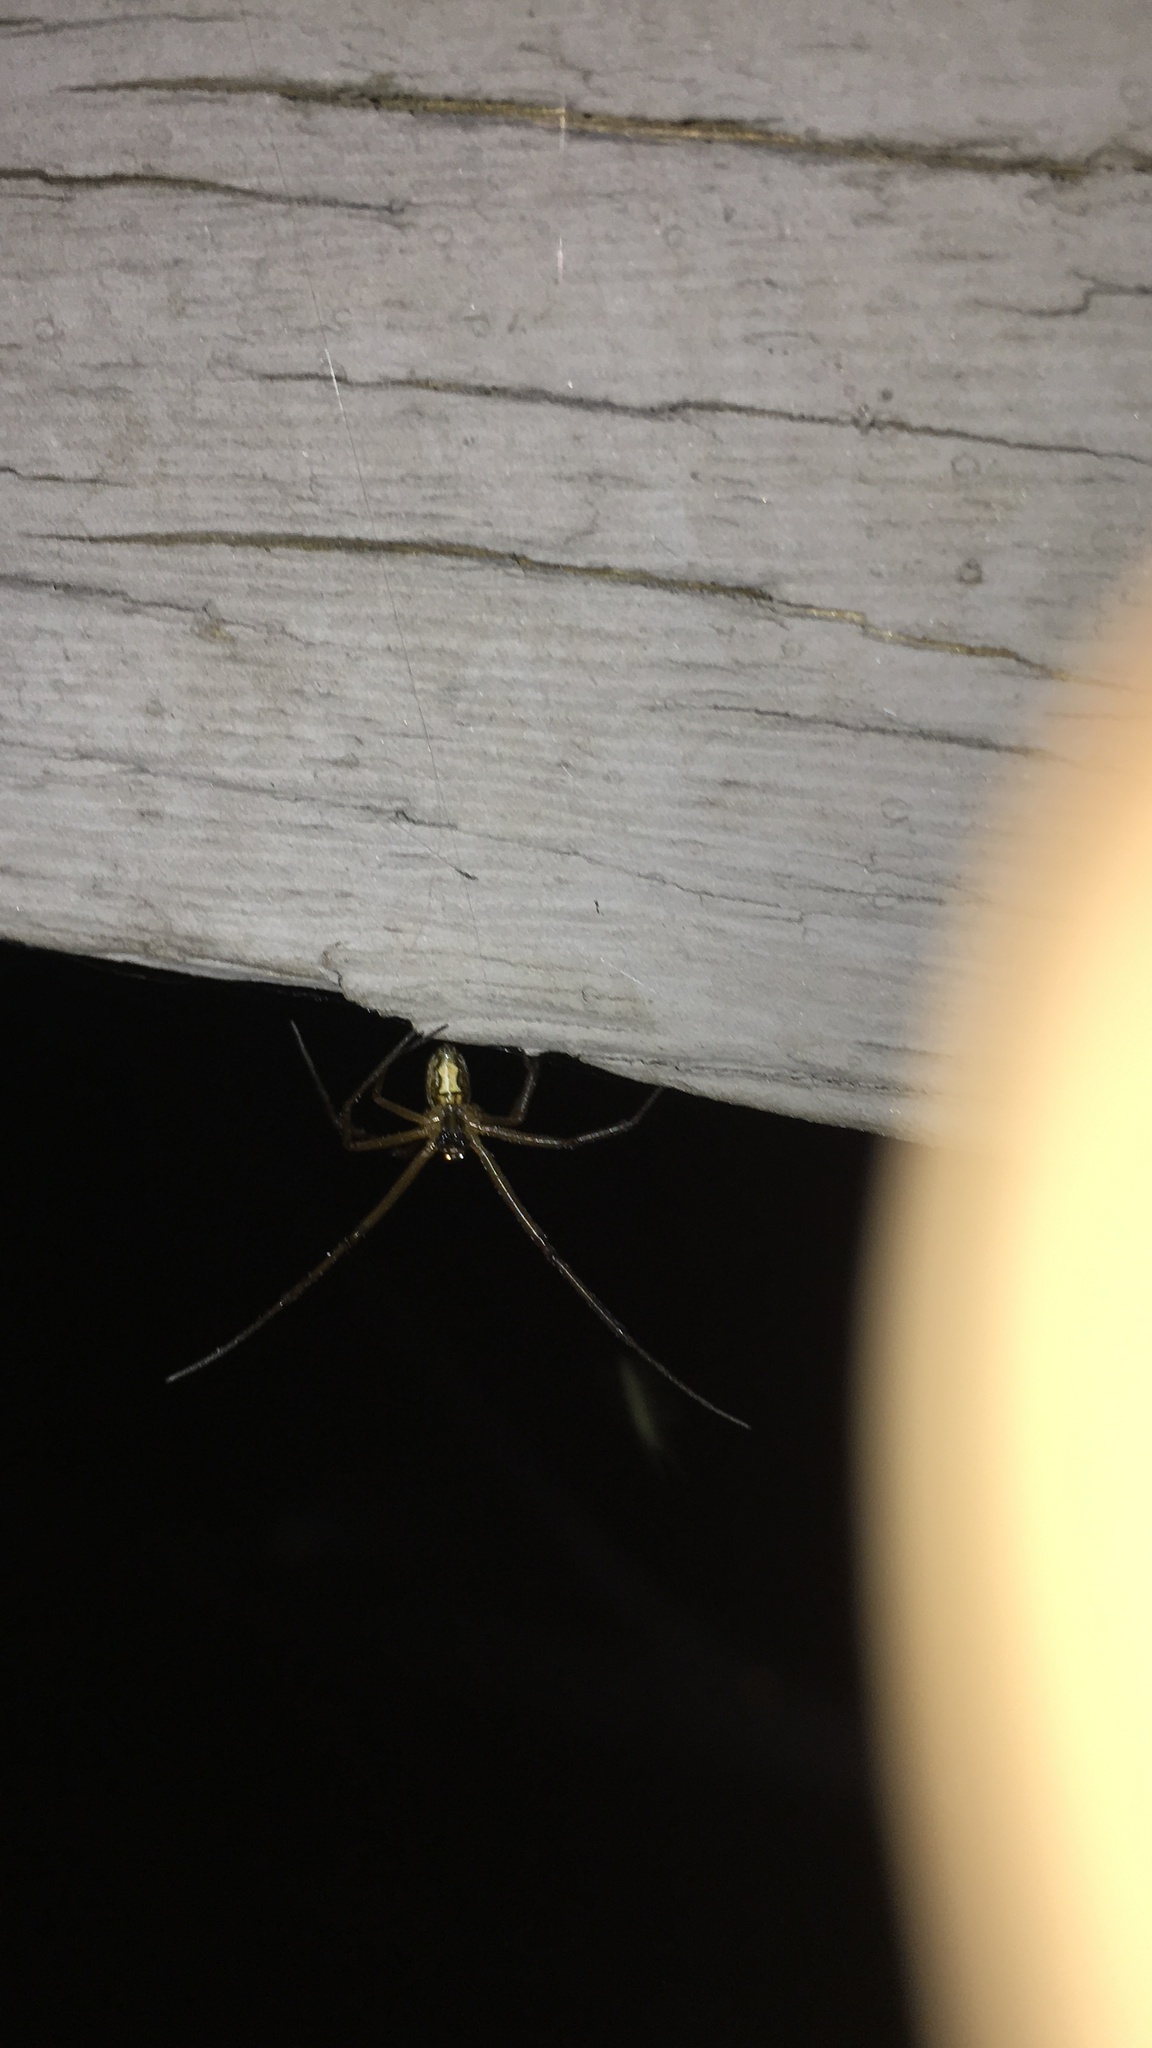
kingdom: Animalia
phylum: Arthropoda
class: Arachnida
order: Araneae
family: Theridiidae
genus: Latrodectus
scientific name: Latrodectus hesperus
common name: Western black widow
